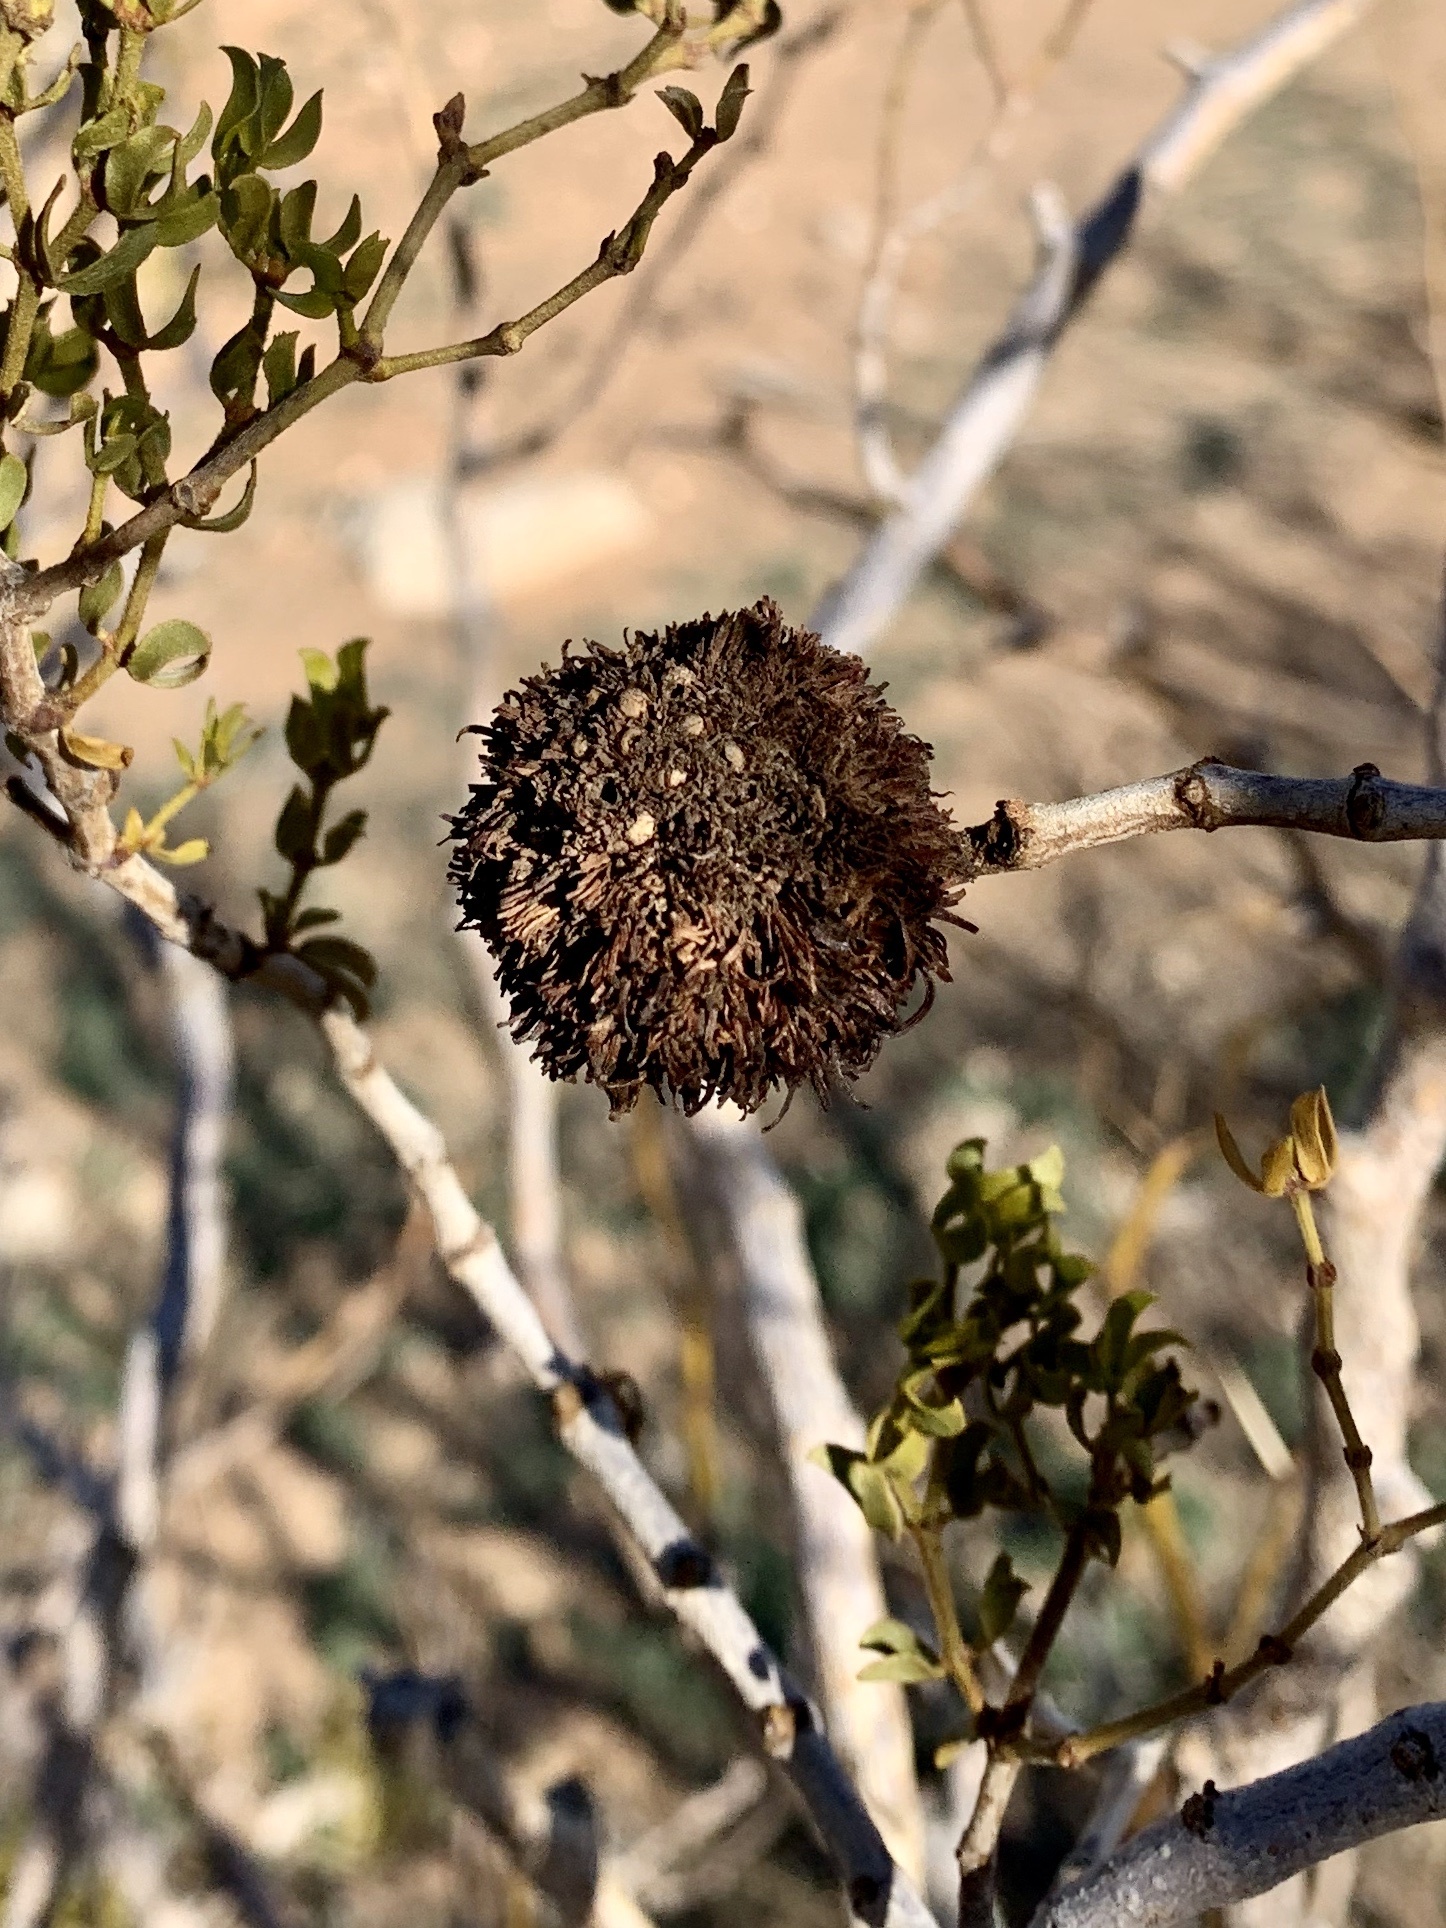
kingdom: Animalia
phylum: Arthropoda
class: Insecta
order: Diptera
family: Cecidomyiidae
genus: Asphondylia
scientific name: Asphondylia auripila
